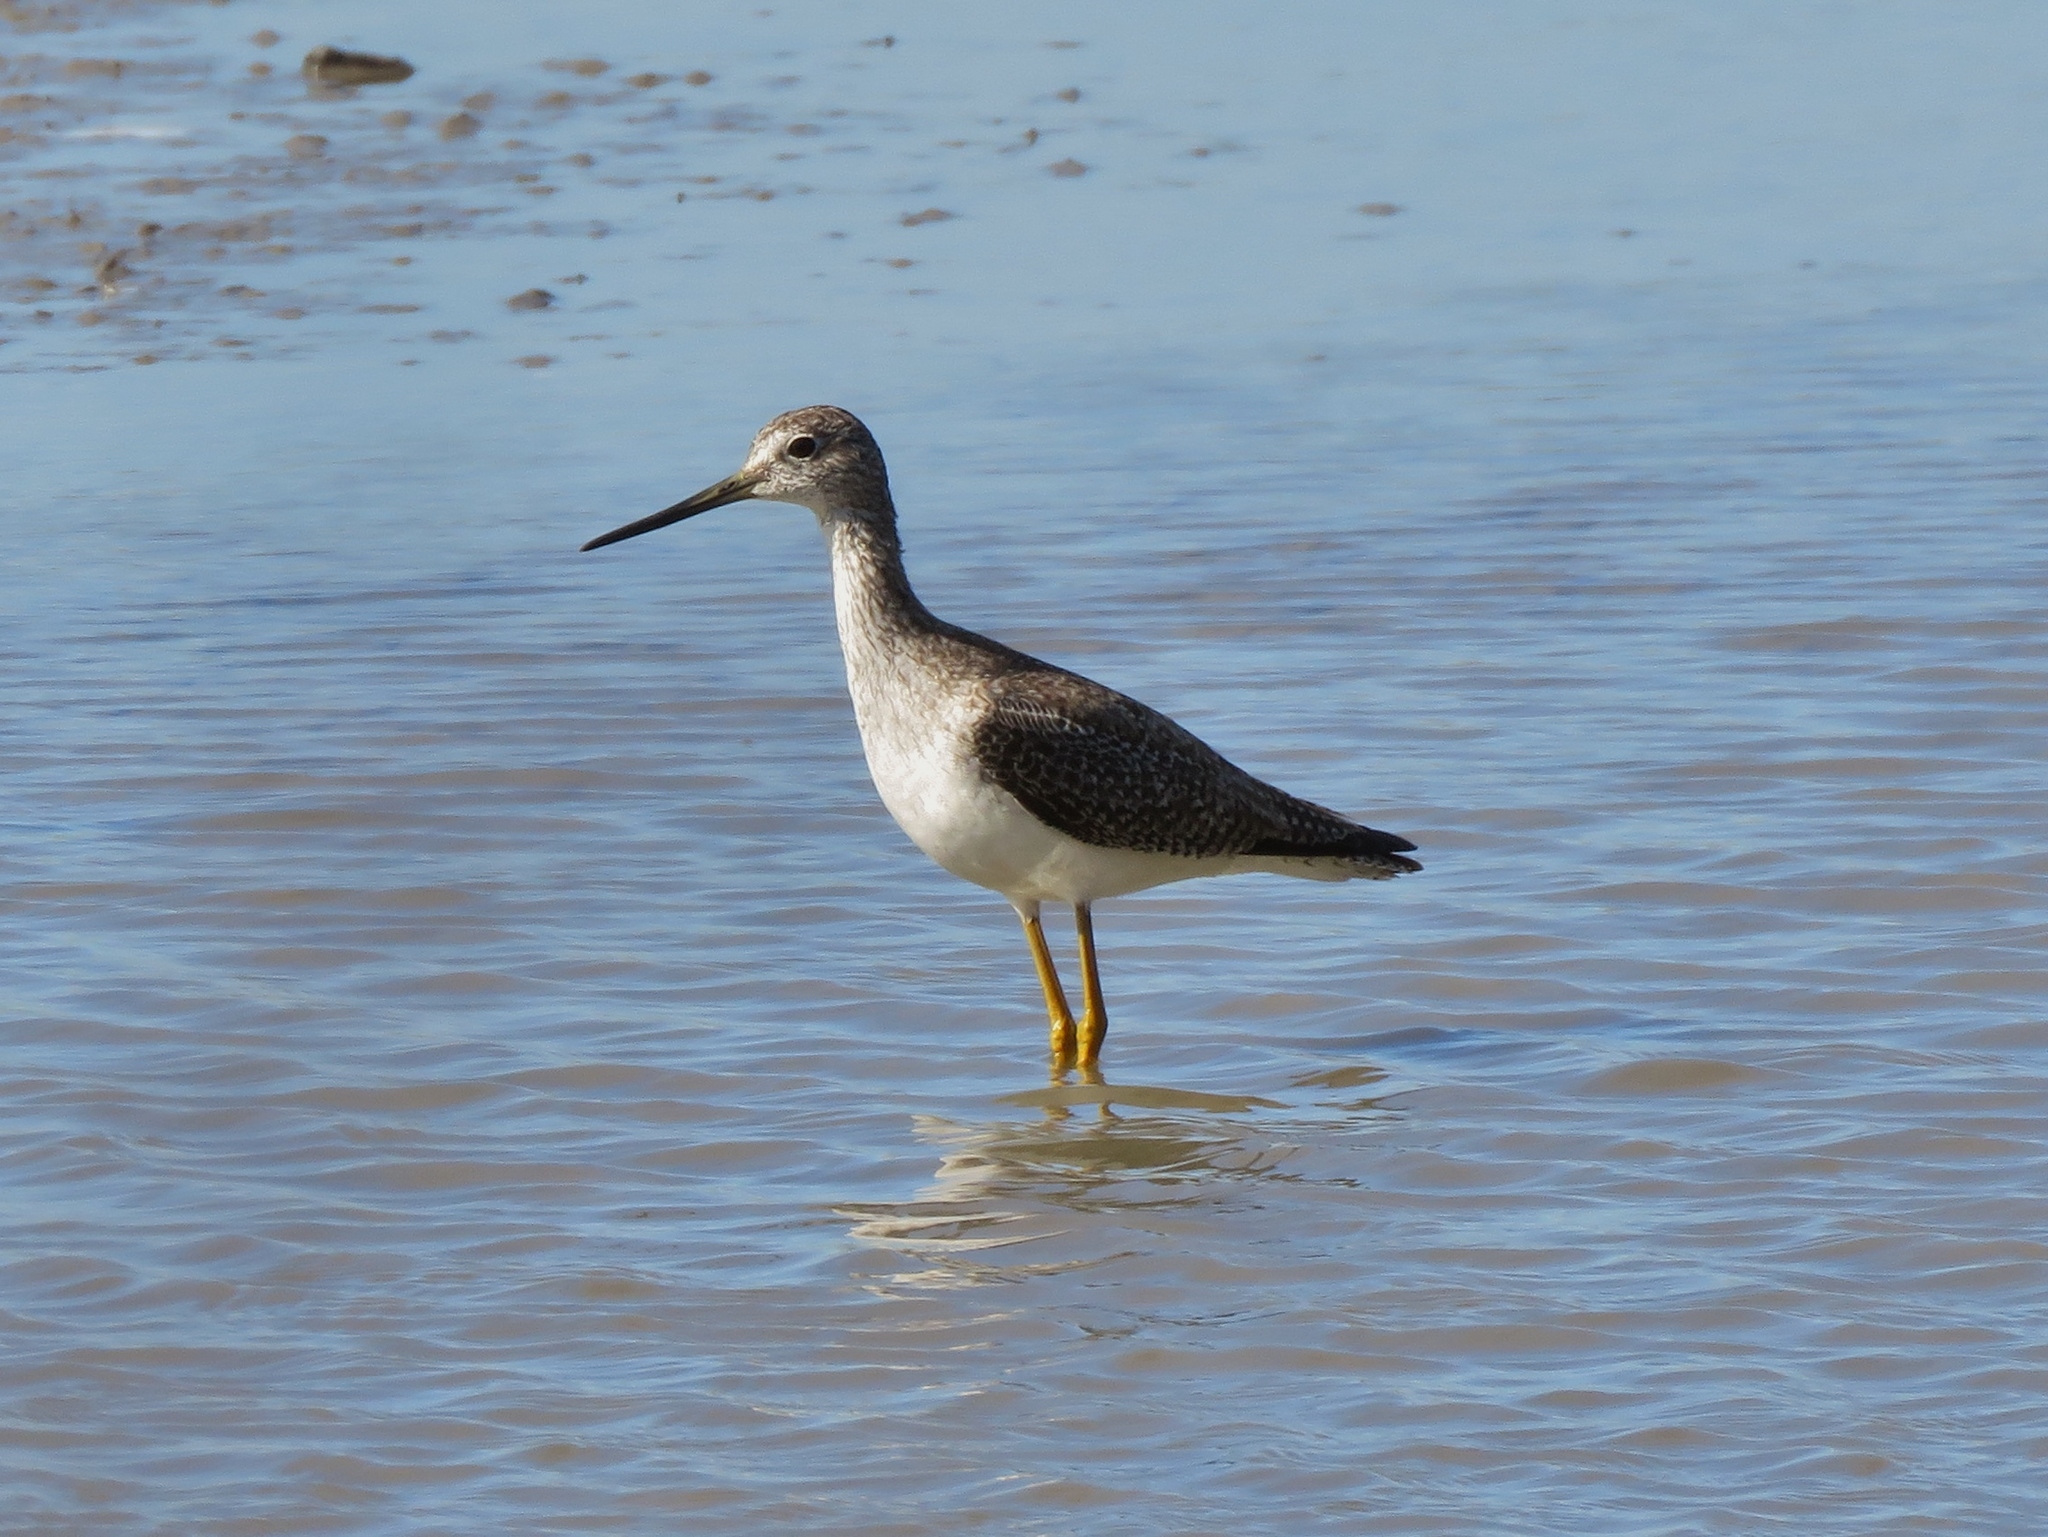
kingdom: Animalia
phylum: Chordata
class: Aves
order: Charadriiformes
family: Scolopacidae
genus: Tringa
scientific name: Tringa melanoleuca
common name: Greater yellowlegs
